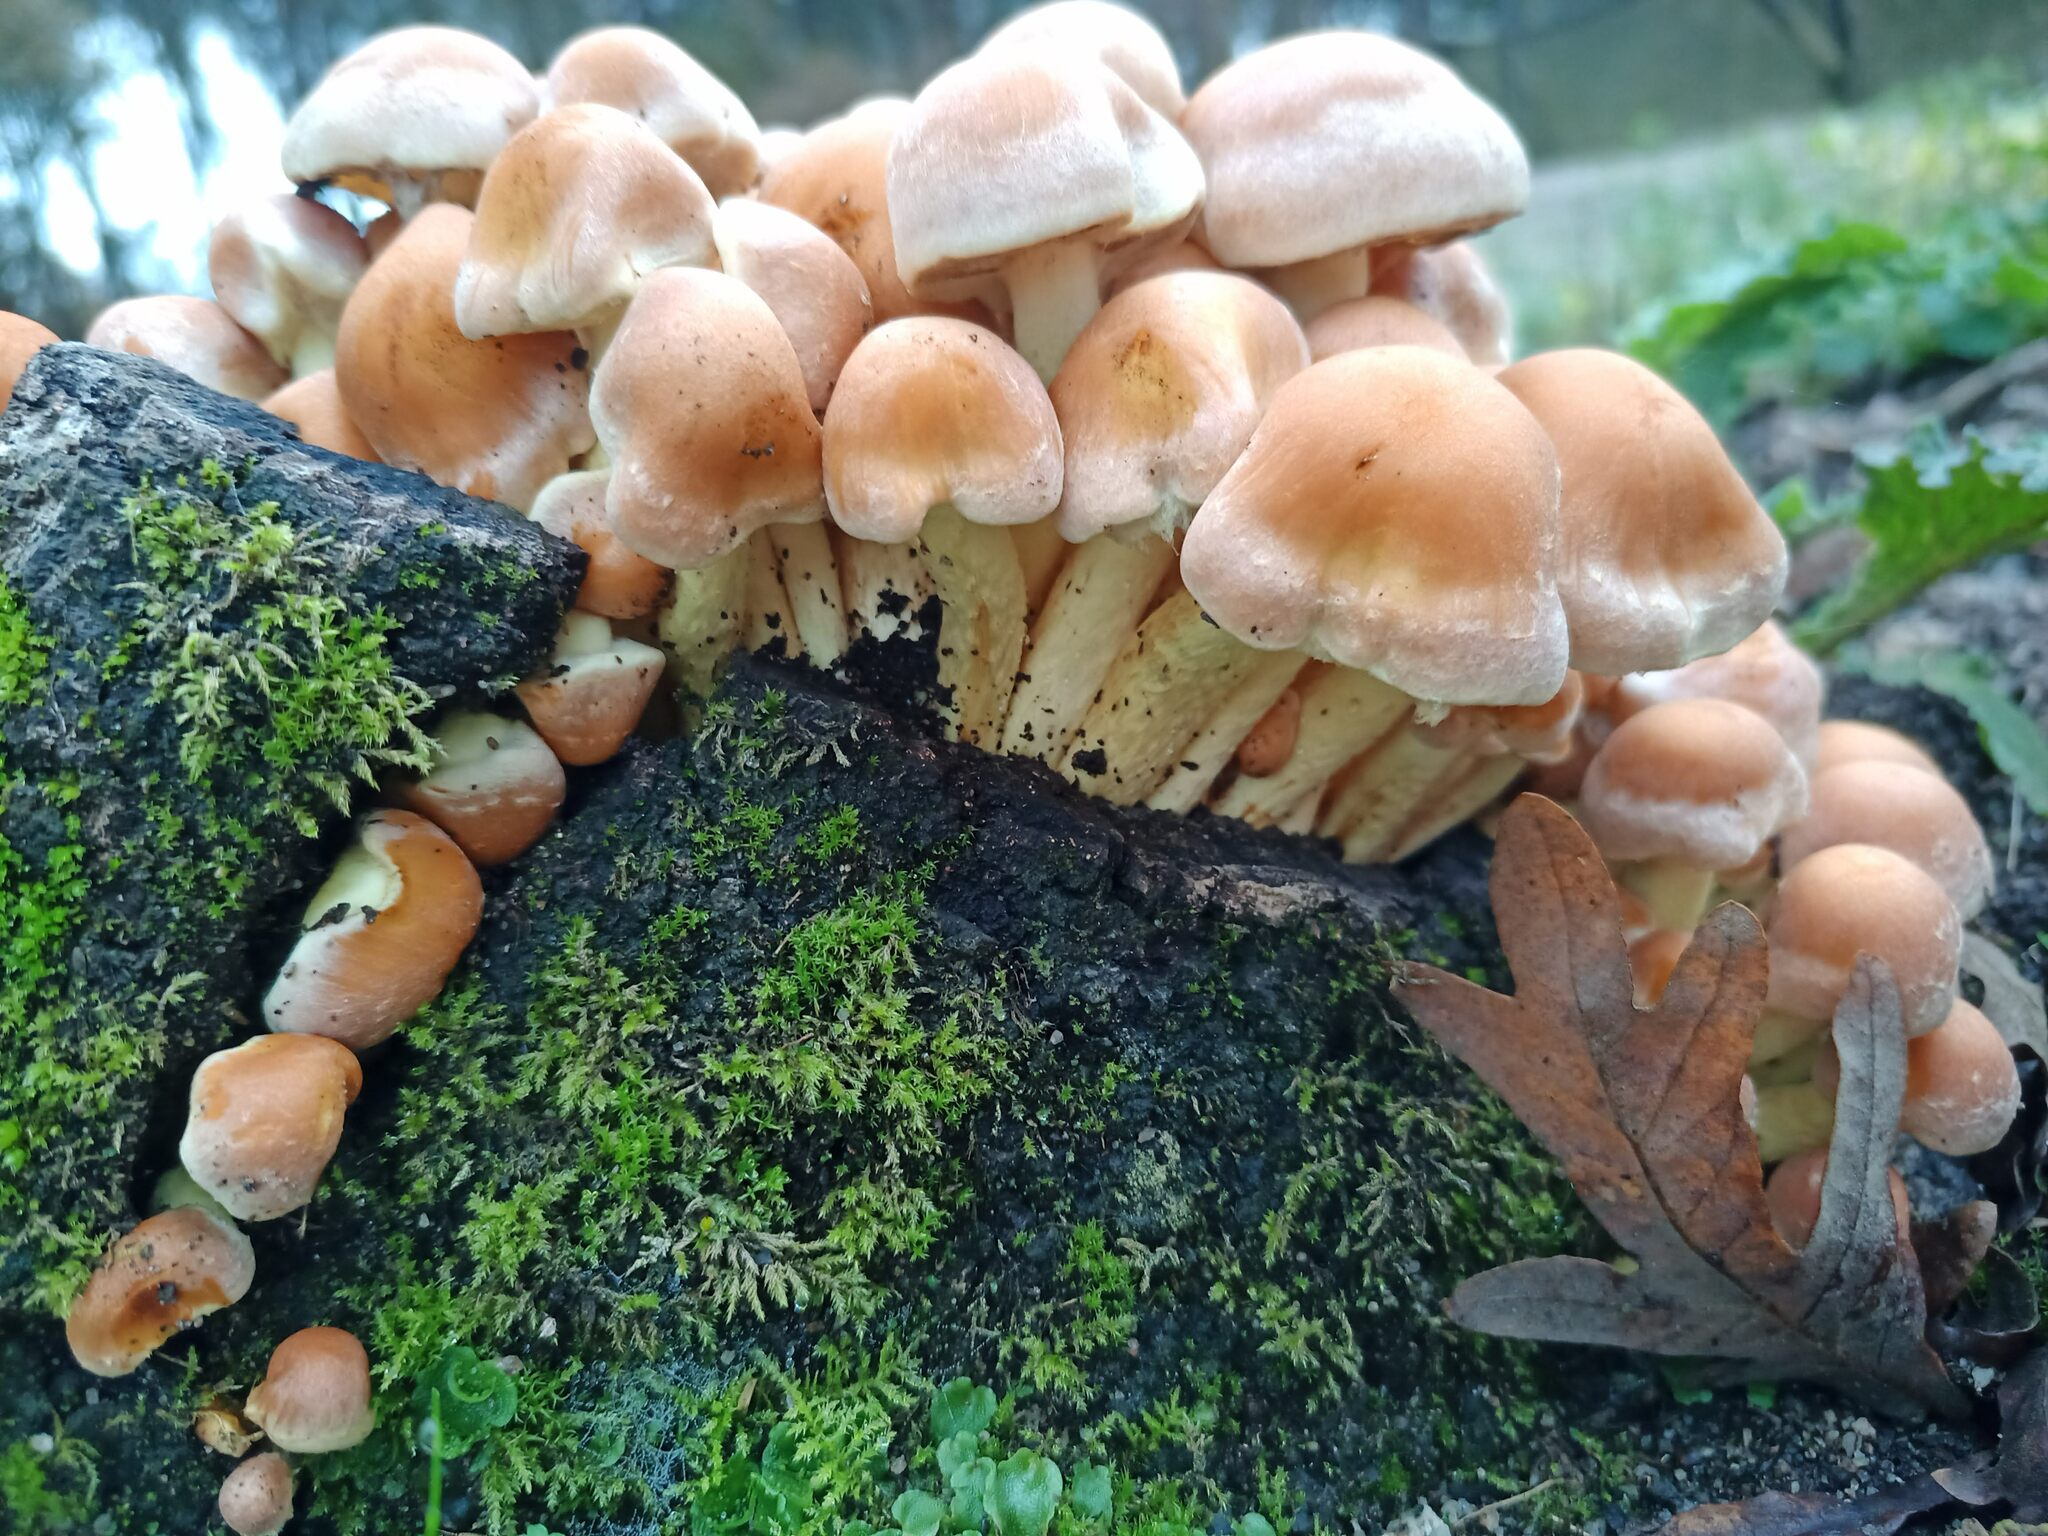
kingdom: Fungi
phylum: Basidiomycota
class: Agaricomycetes
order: Agaricales
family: Strophariaceae
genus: Hypholoma
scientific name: Hypholoma fasciculare
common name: Sulphur tuft
